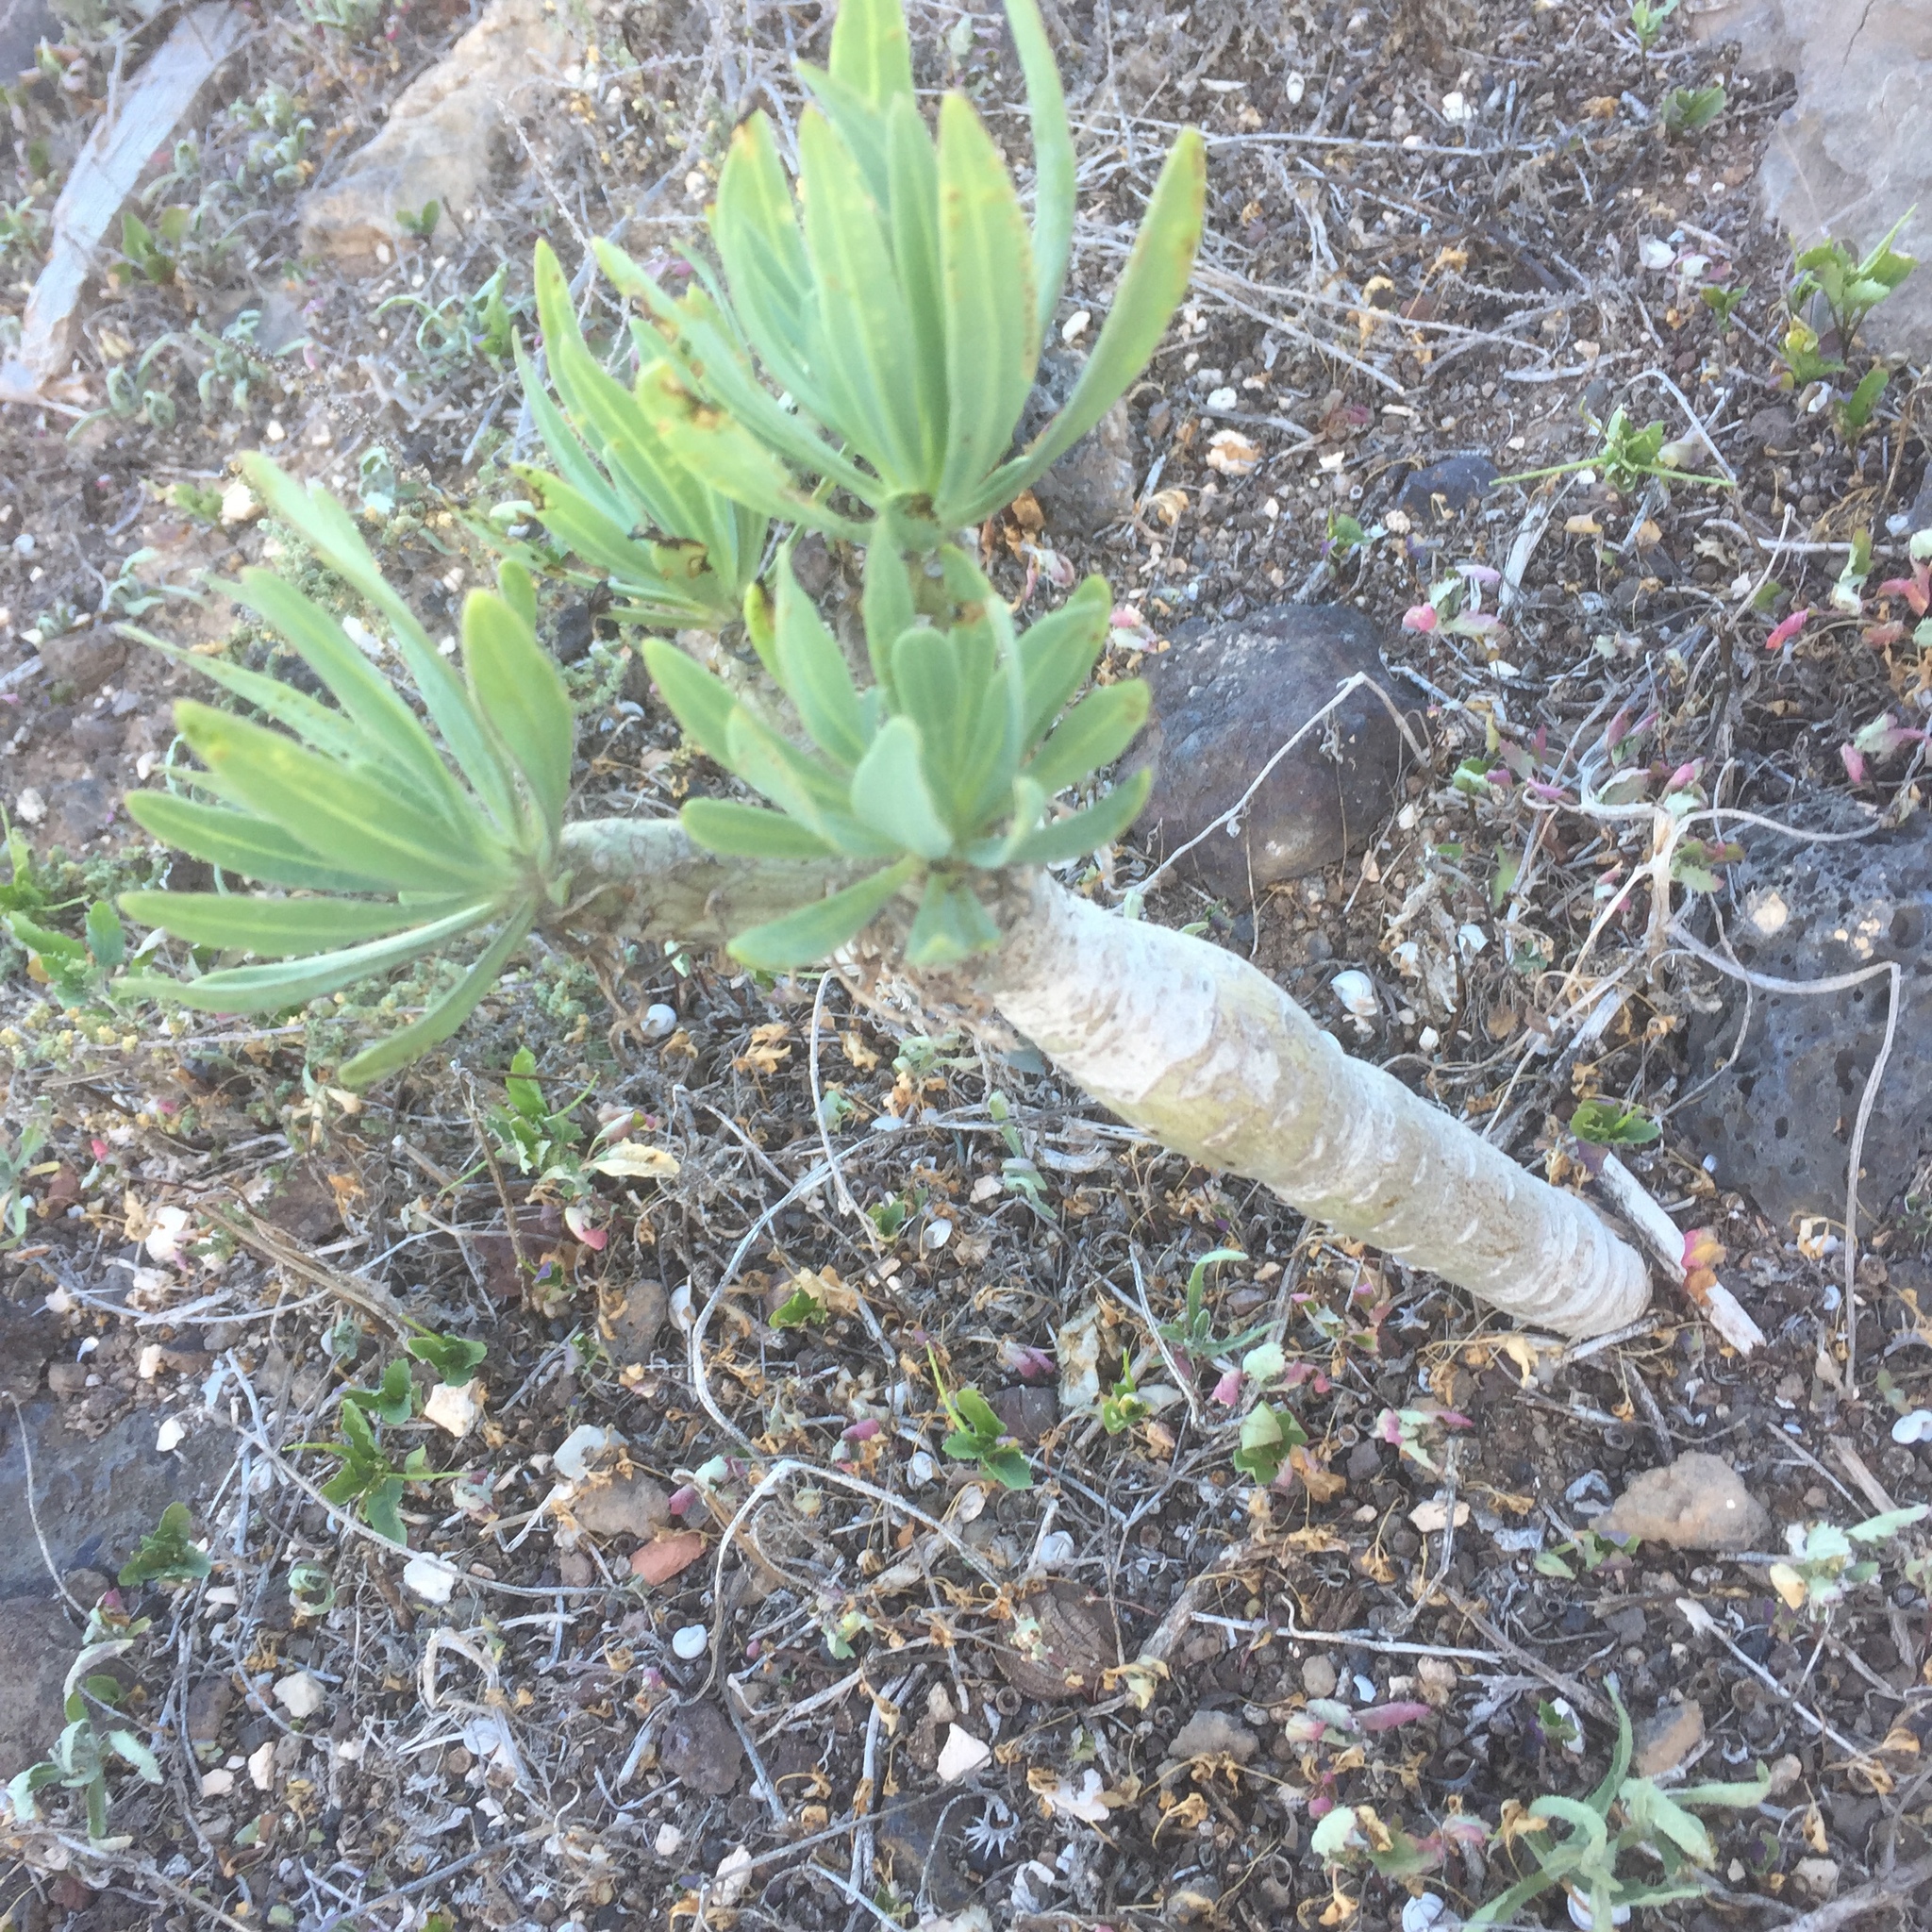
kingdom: Plantae
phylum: Tracheophyta
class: Magnoliopsida
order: Asterales
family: Asteraceae
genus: Kleinia
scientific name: Kleinia neriifolia
